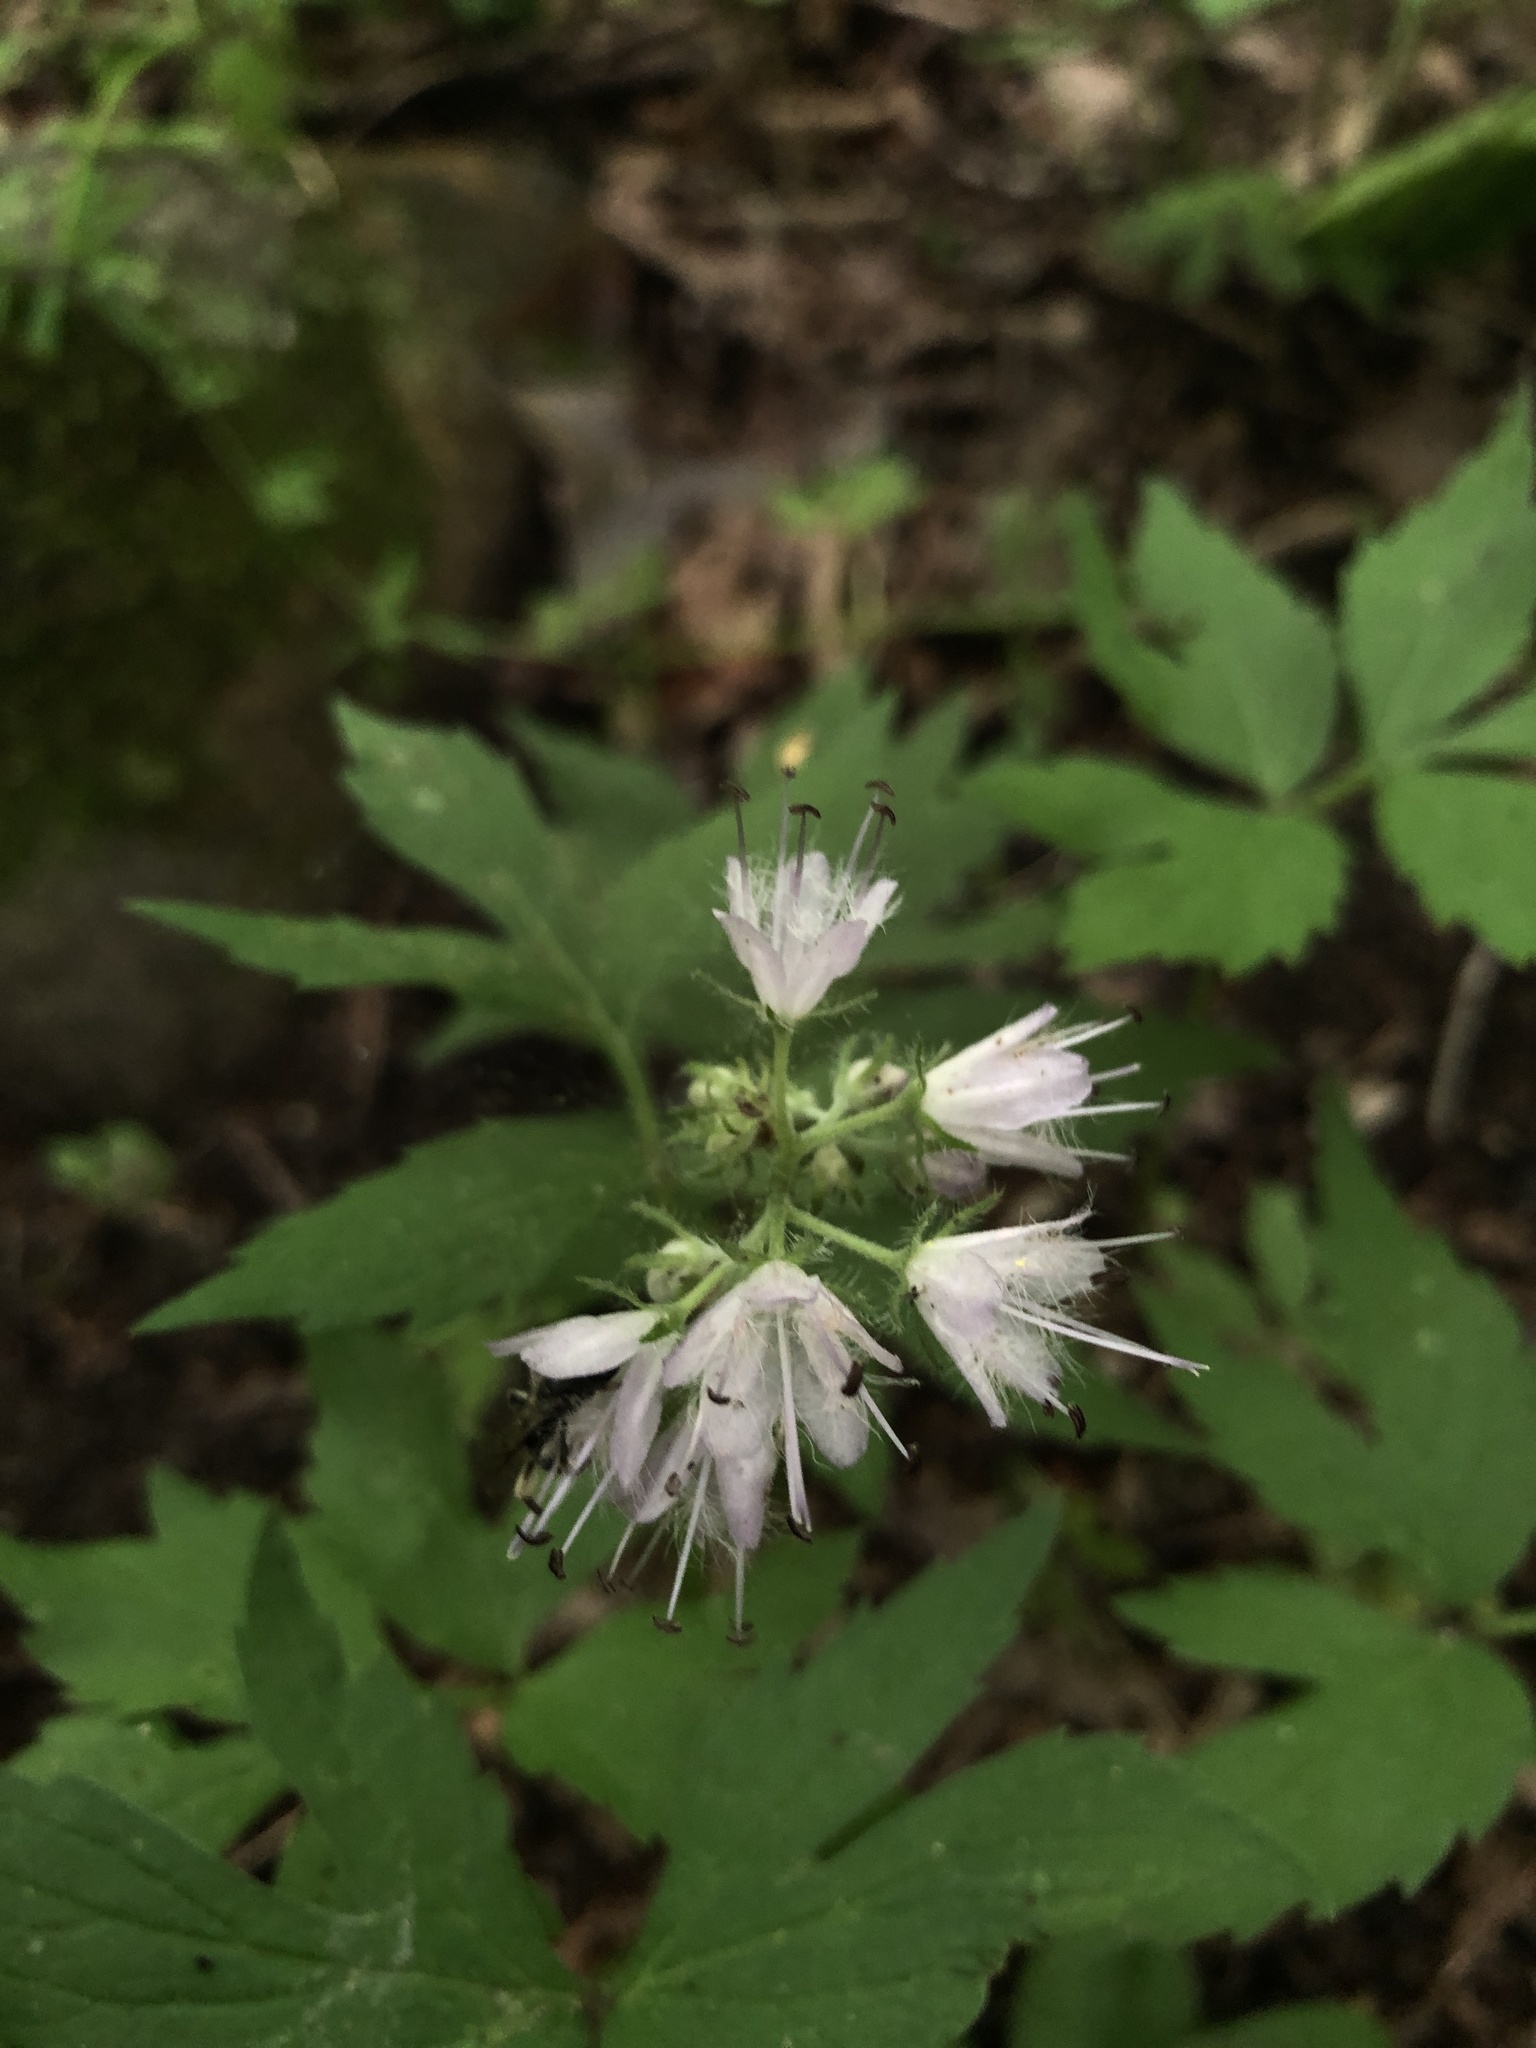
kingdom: Plantae
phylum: Tracheophyta
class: Magnoliopsida
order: Boraginales
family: Hydrophyllaceae
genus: Hydrophyllum
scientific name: Hydrophyllum virginianum
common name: Virginia waterleaf
